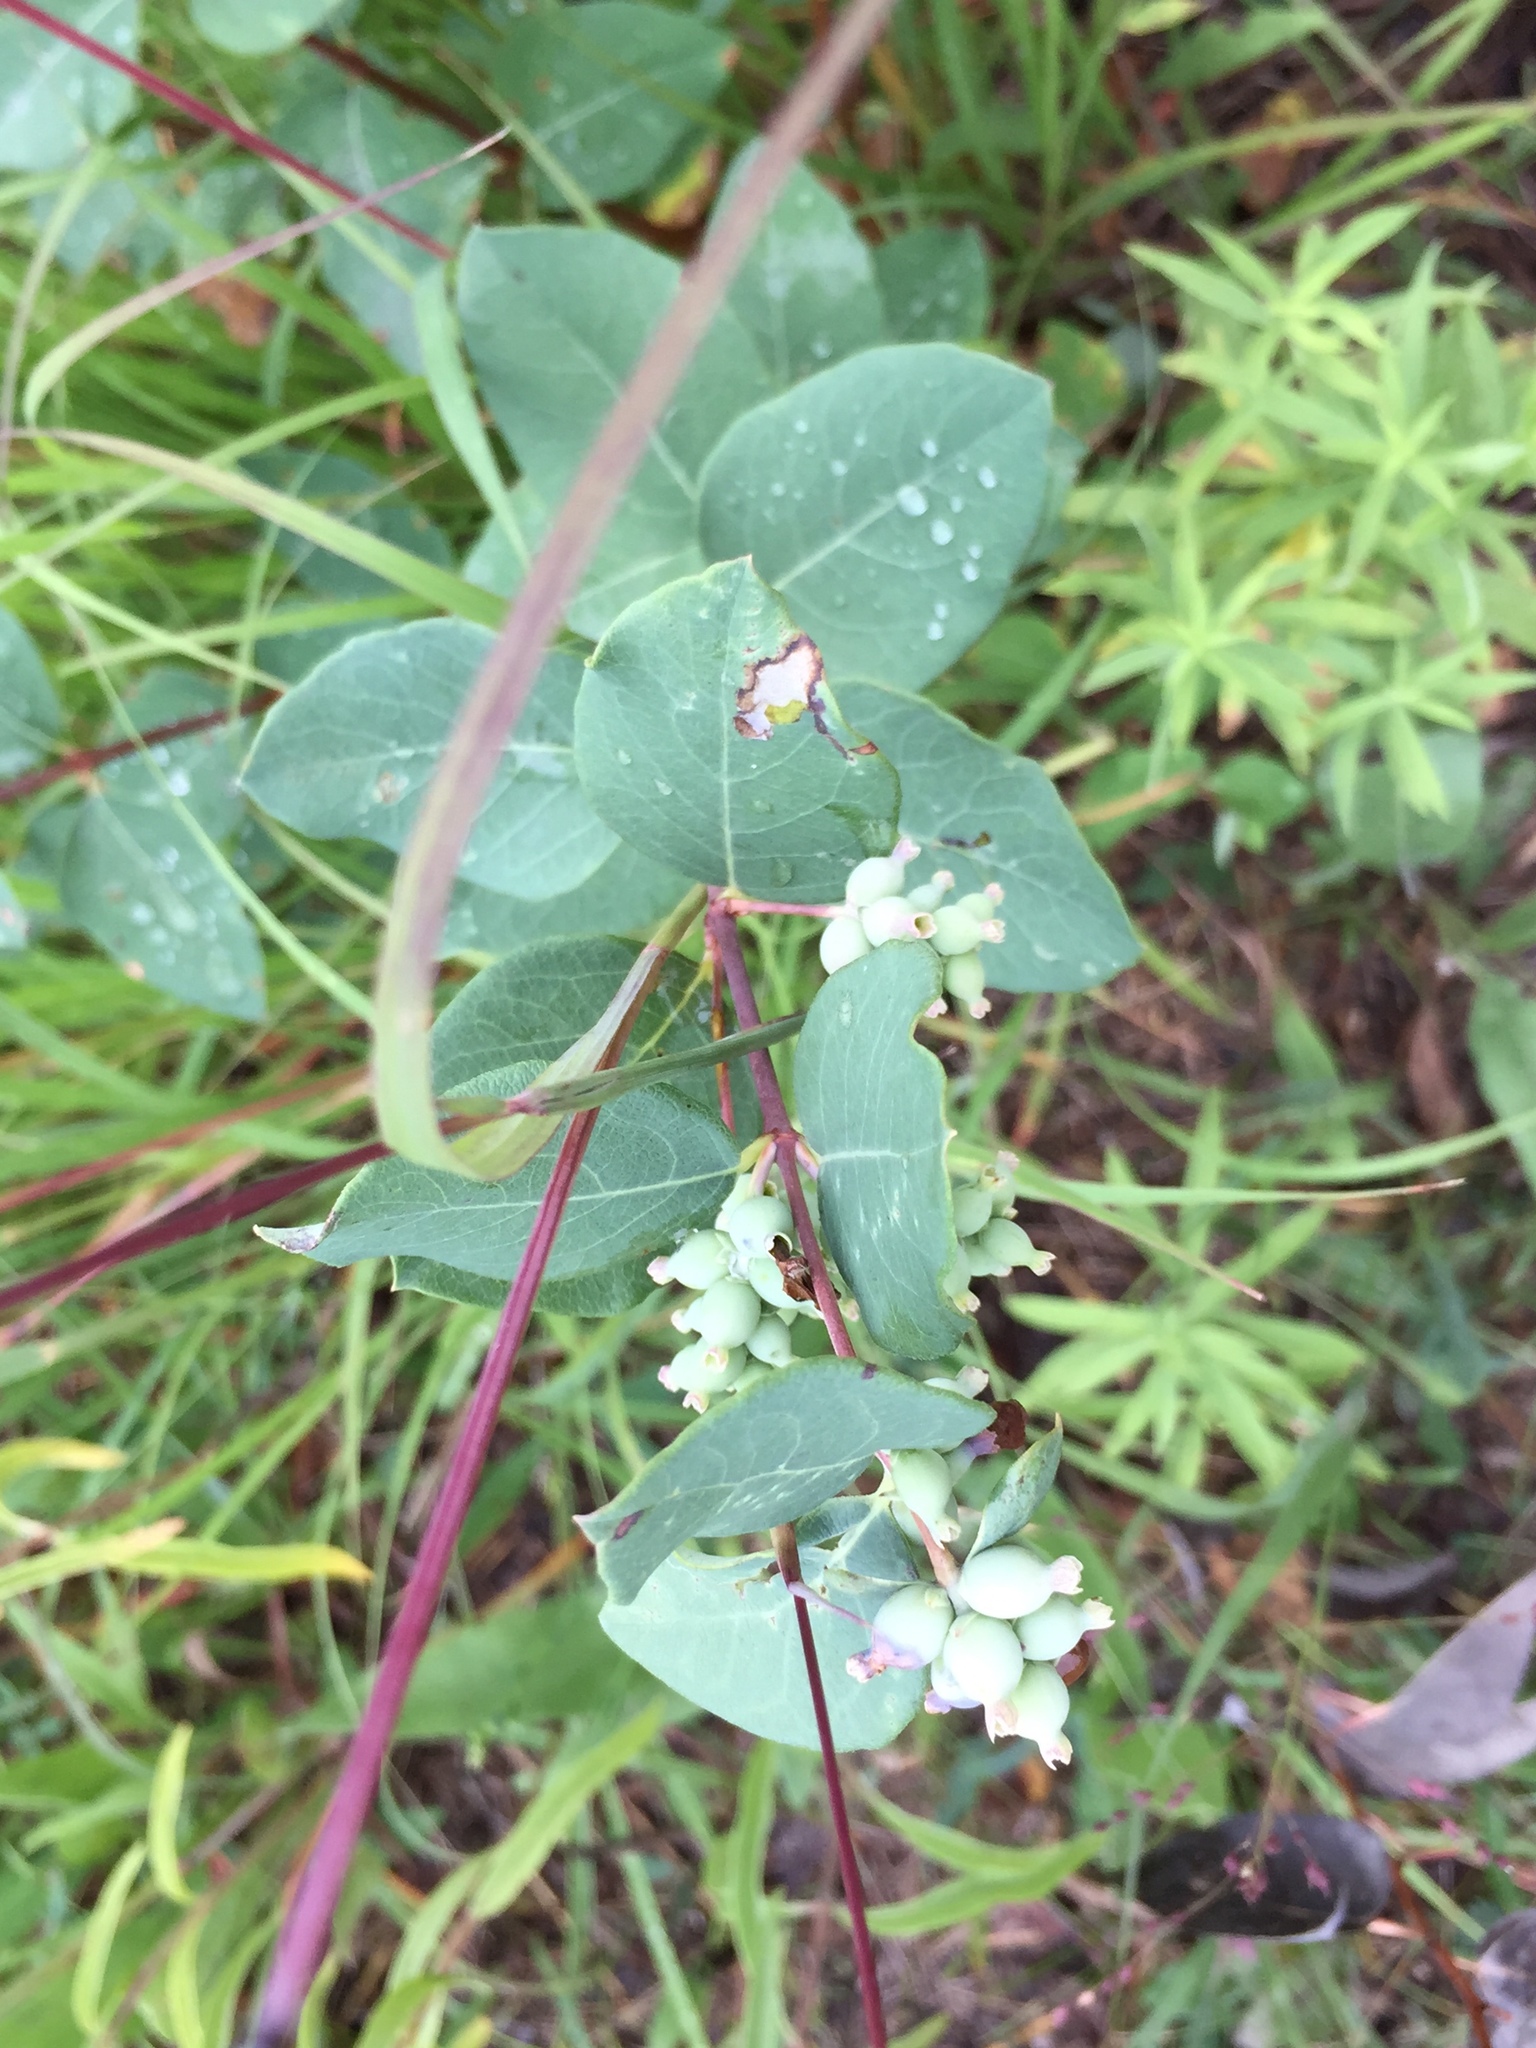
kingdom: Plantae
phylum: Tracheophyta
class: Magnoliopsida
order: Dipsacales
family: Caprifoliaceae
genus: Symphoricarpos
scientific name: Symphoricarpos occidentalis
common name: Wolfberry
